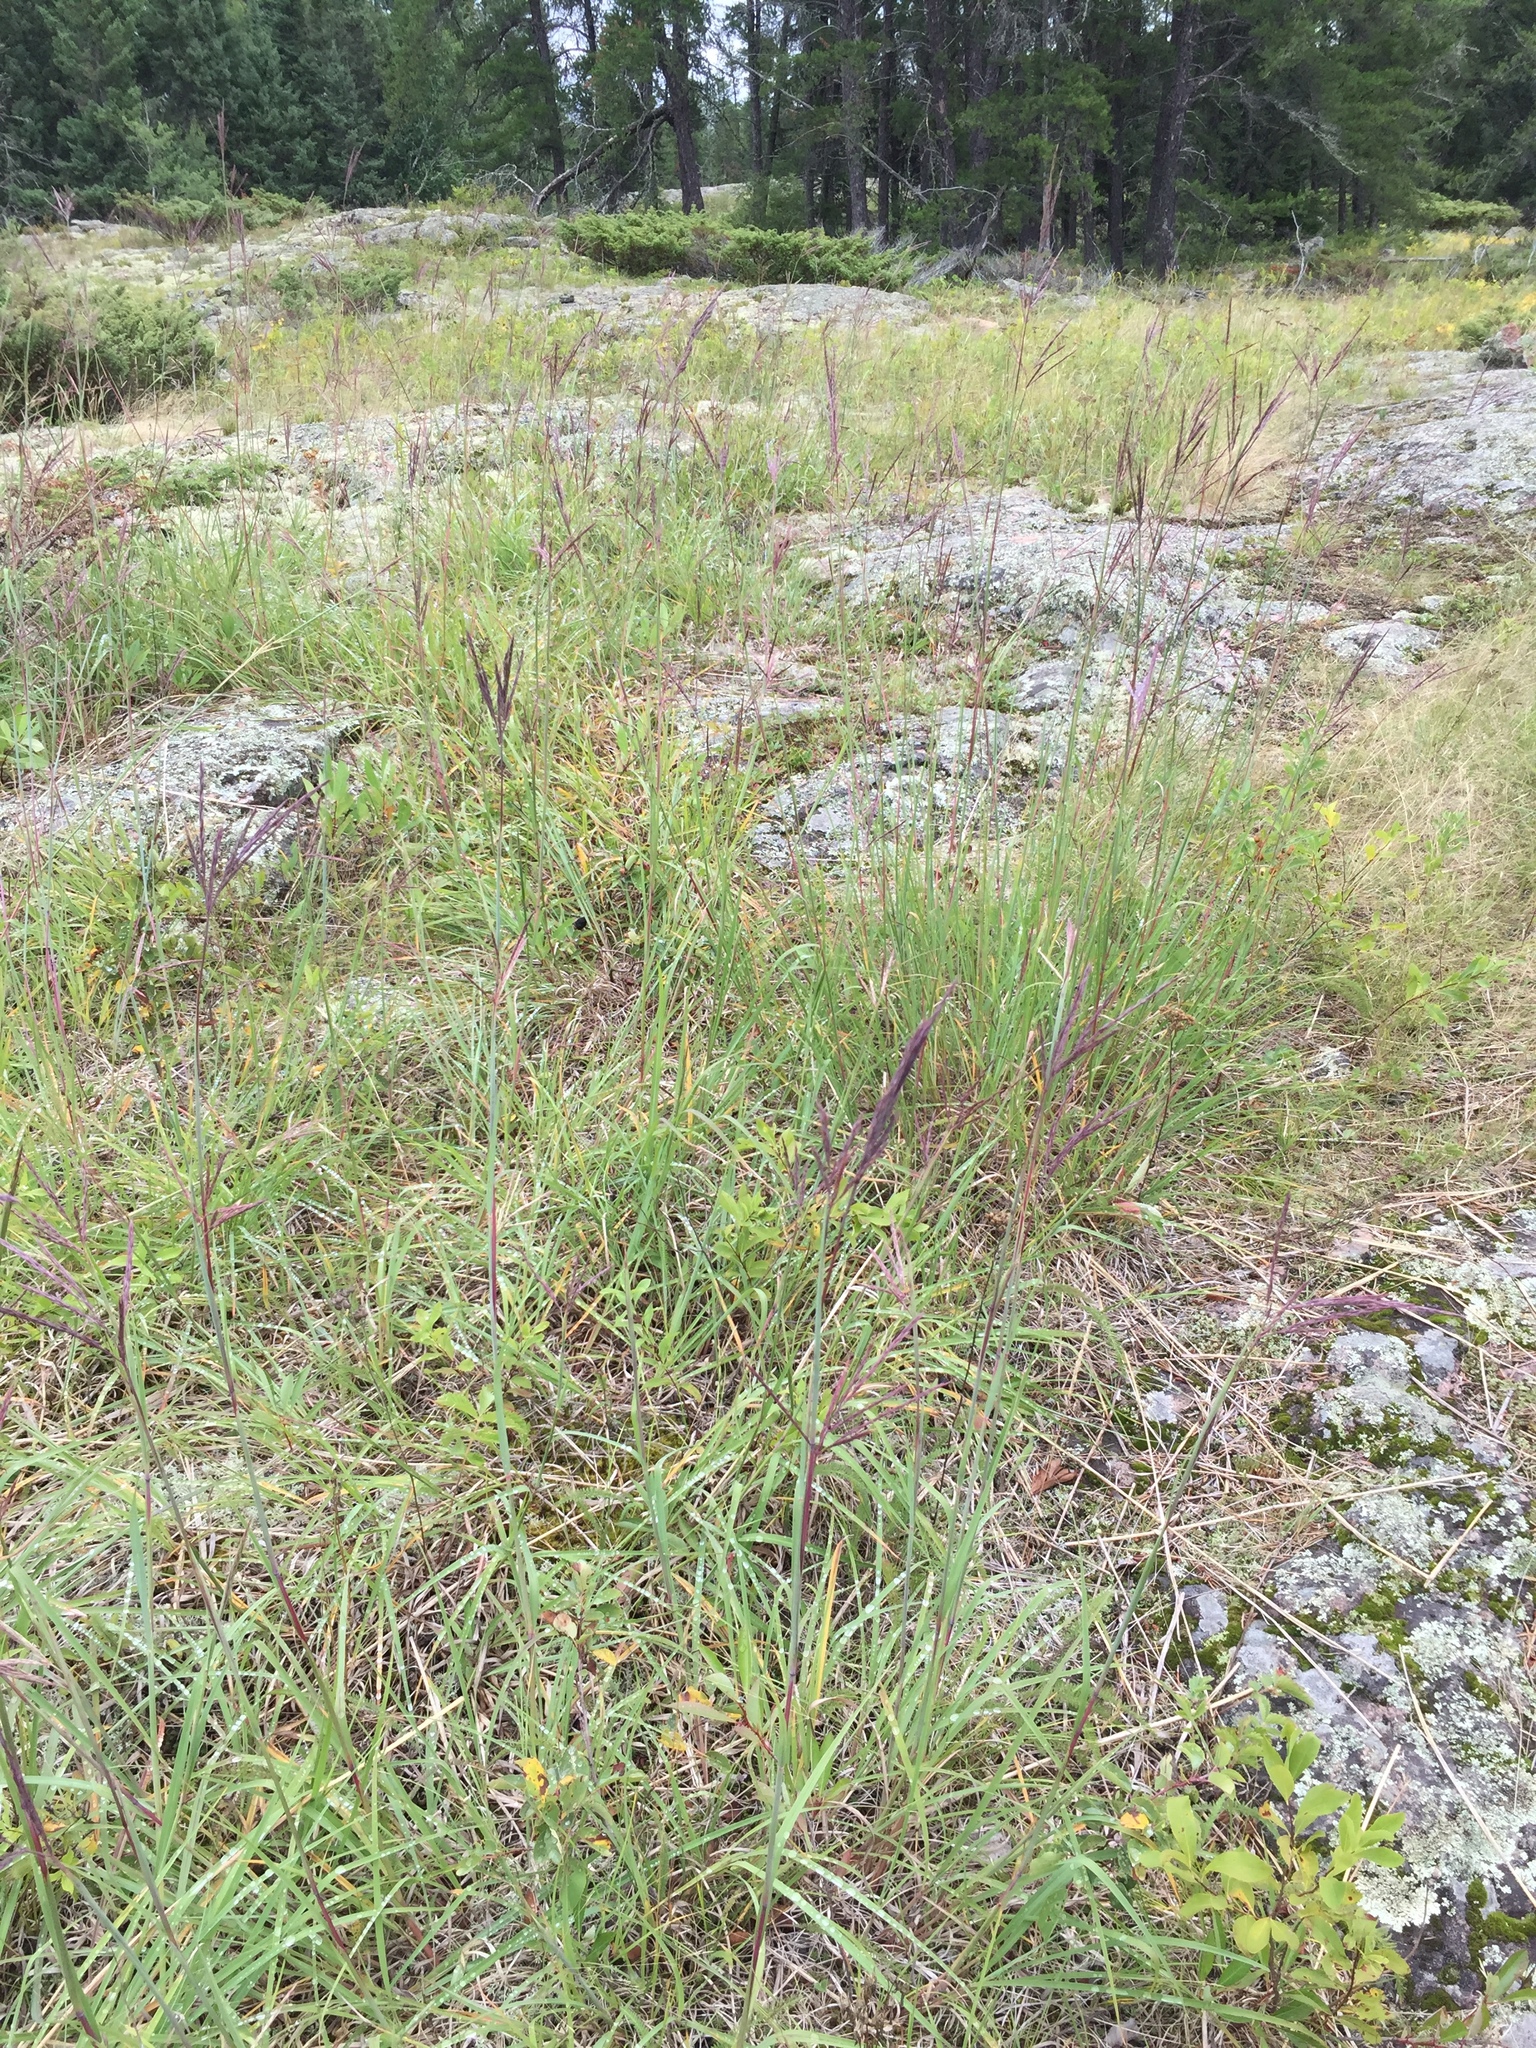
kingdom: Plantae
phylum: Tracheophyta
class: Liliopsida
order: Poales
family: Poaceae
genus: Andropogon
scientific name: Andropogon gerardi
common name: Big bluestem
